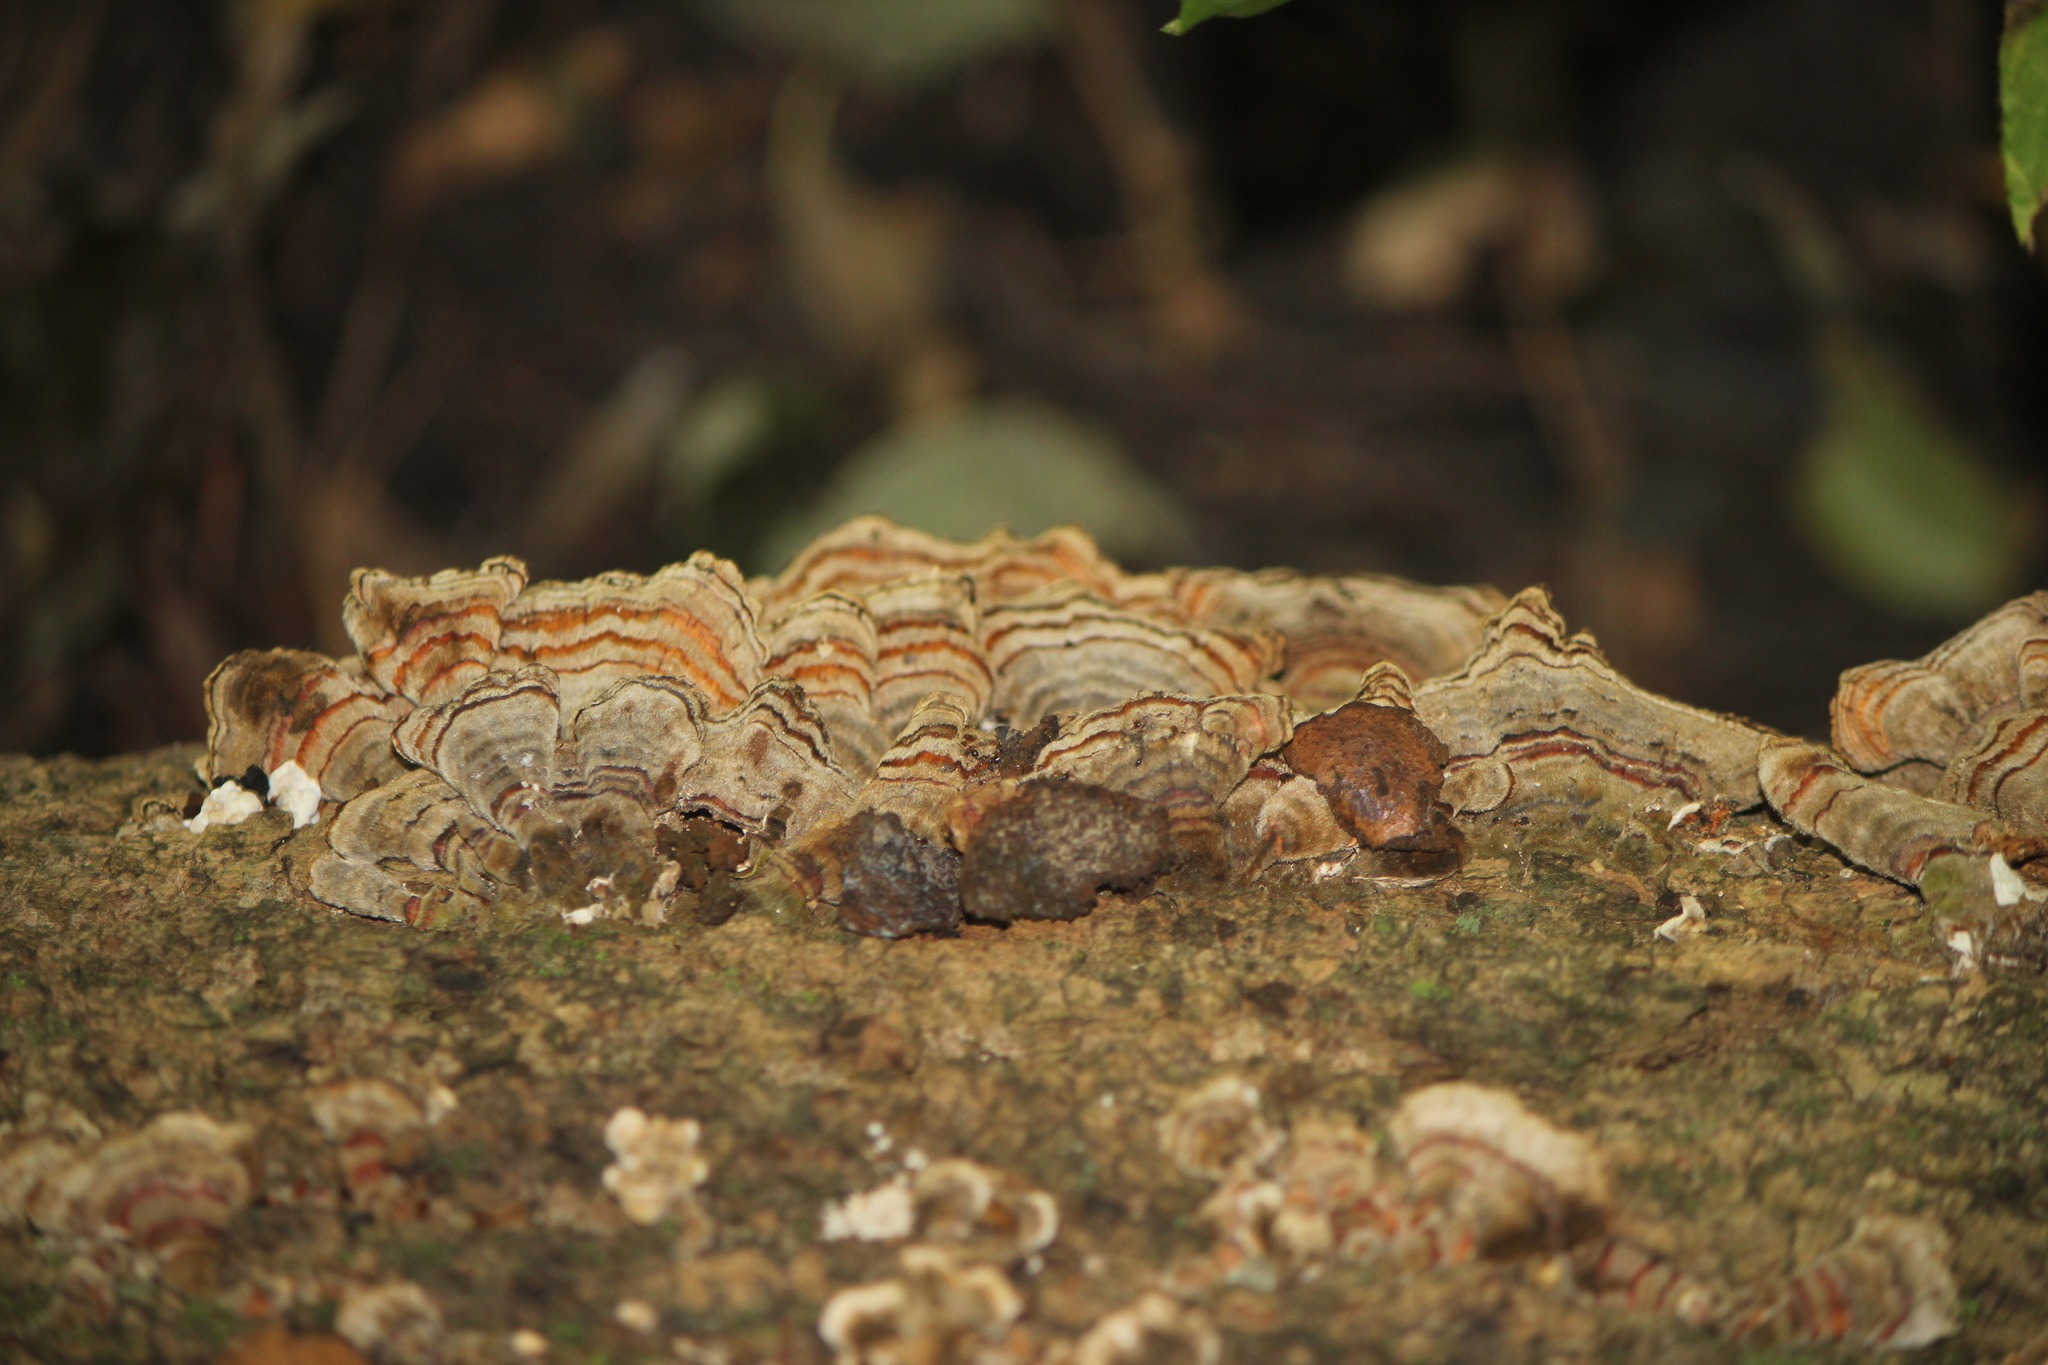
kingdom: Fungi
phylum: Basidiomycota
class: Agaricomycetes
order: Polyporales
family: Polyporaceae
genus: Trametes
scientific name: Trametes versicolor
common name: Turkeytail
